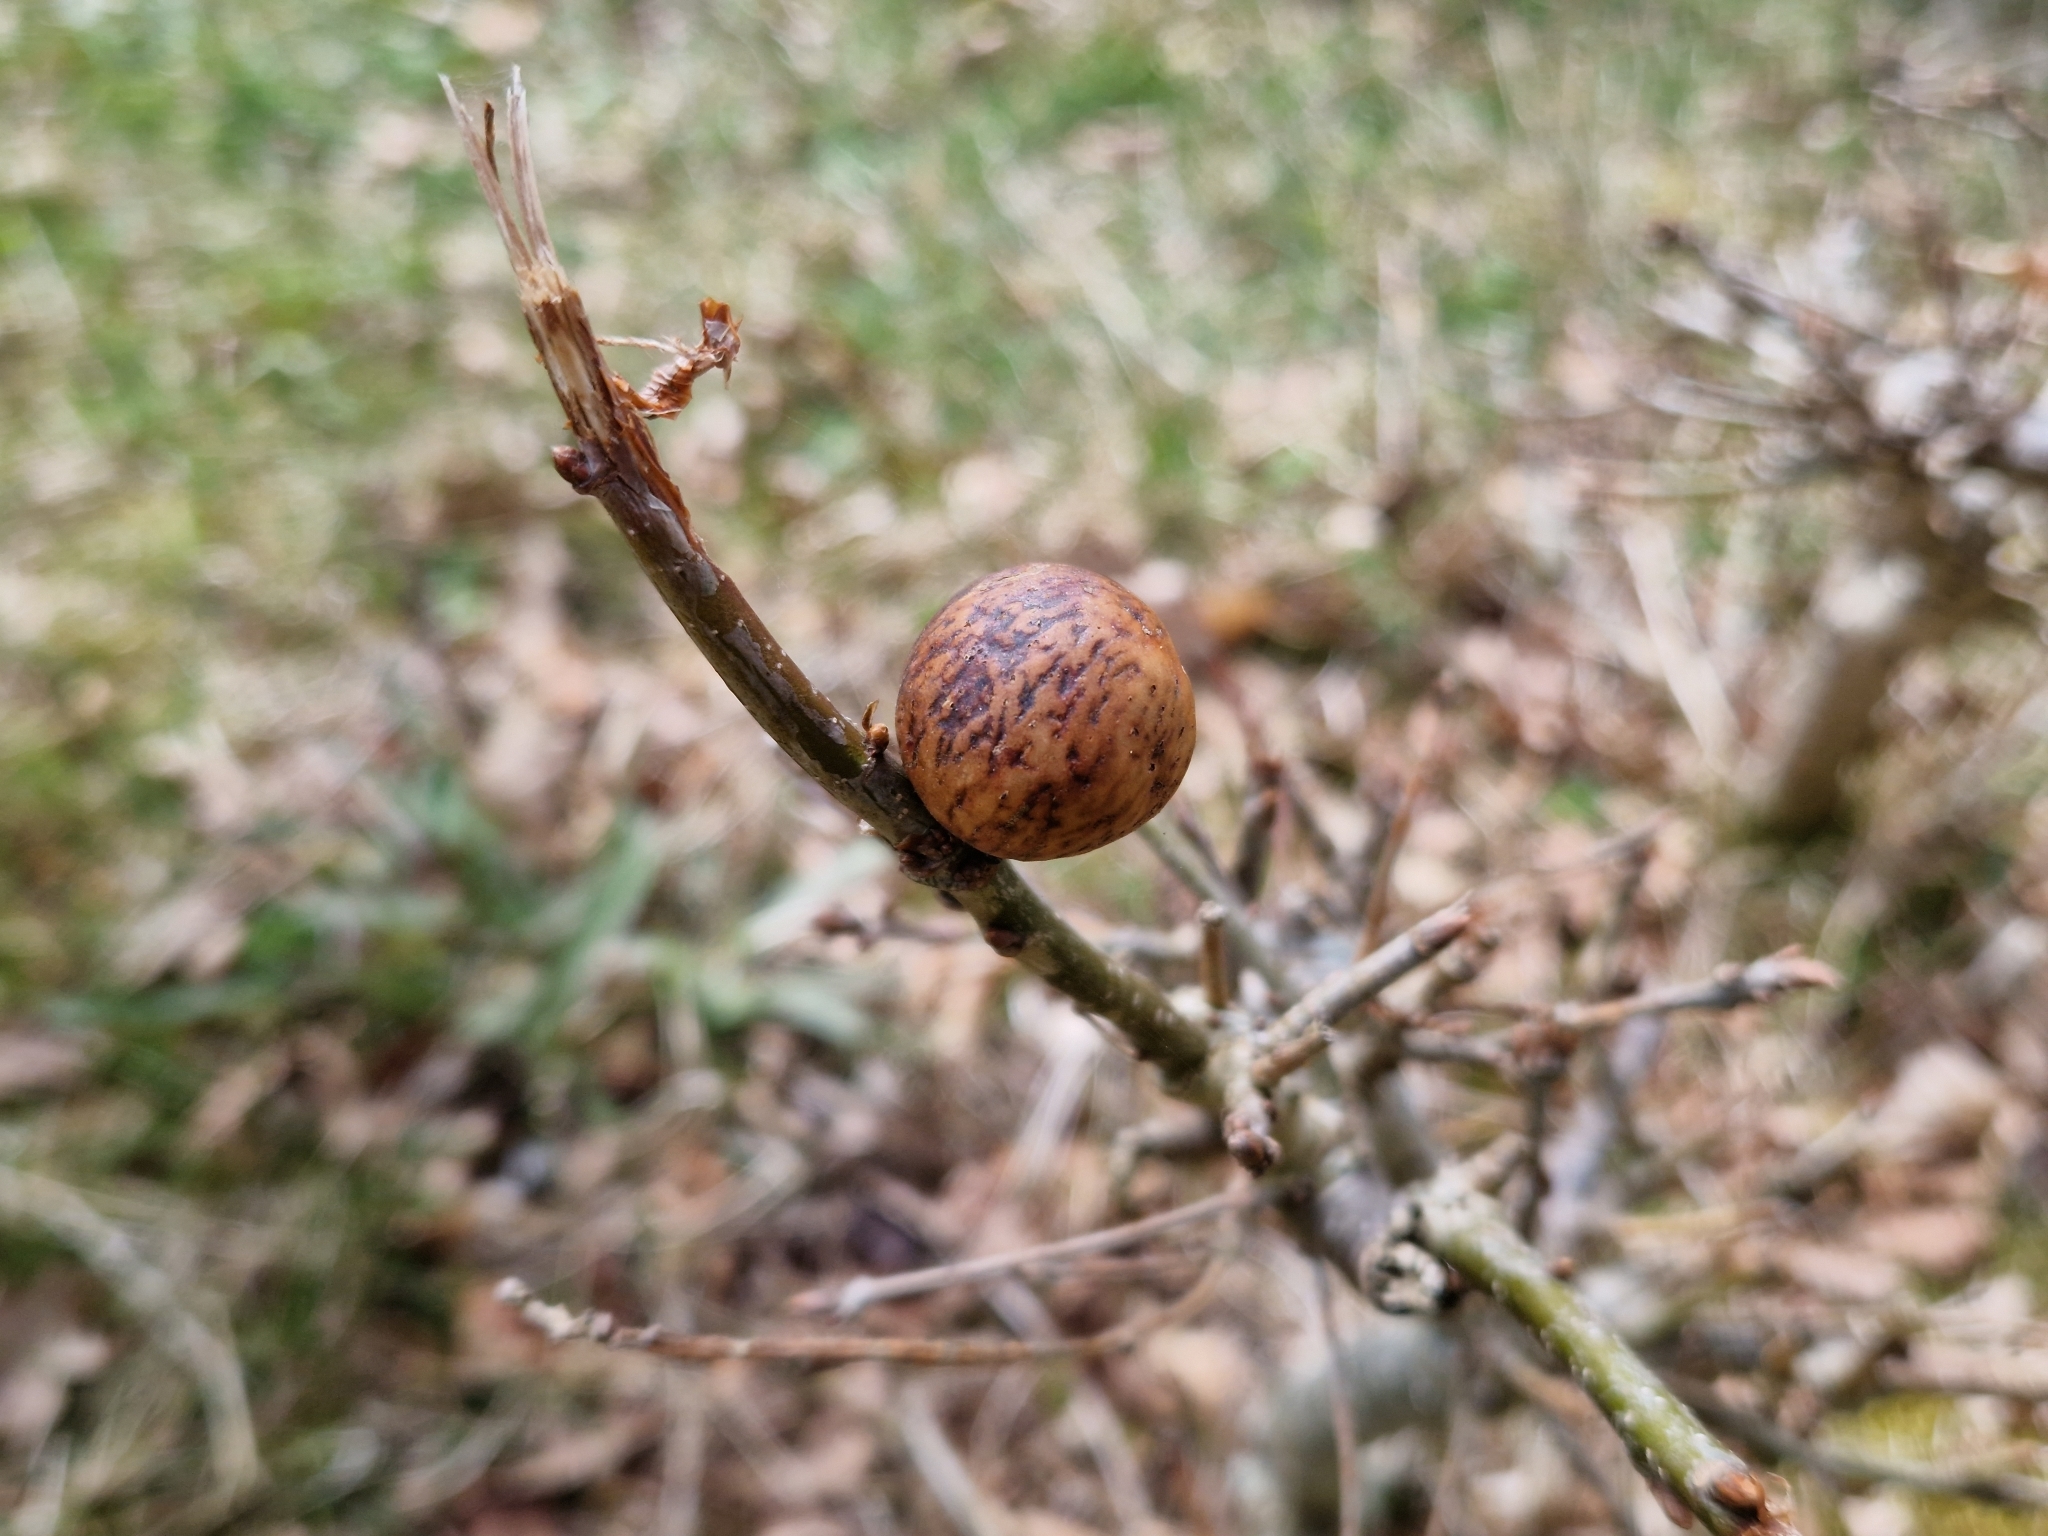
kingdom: Animalia
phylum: Arthropoda
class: Insecta
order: Hymenoptera
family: Cynipidae
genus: Andricus
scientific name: Andricus kollari
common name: Marble gall
